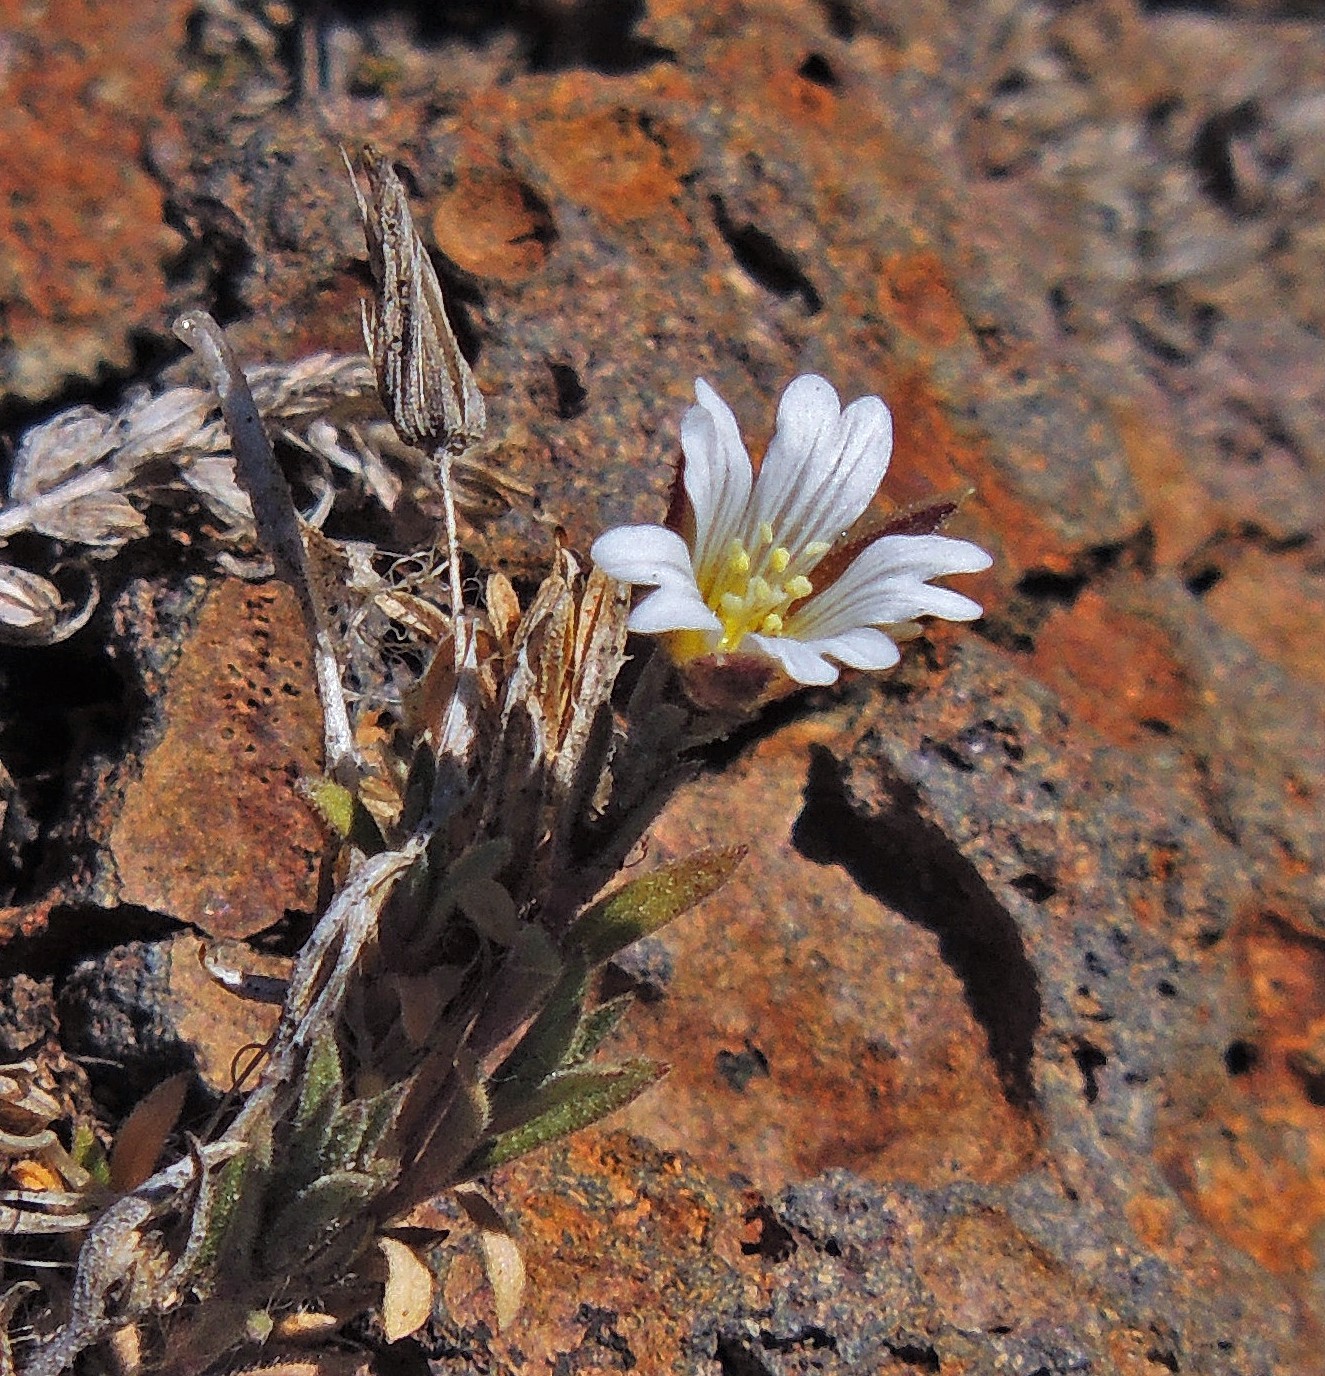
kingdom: Plantae
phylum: Tracheophyta
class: Magnoliopsida
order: Caryophyllales
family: Caryophyllaceae
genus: Cerastium
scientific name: Cerastium arvense
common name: Field mouse-ear
